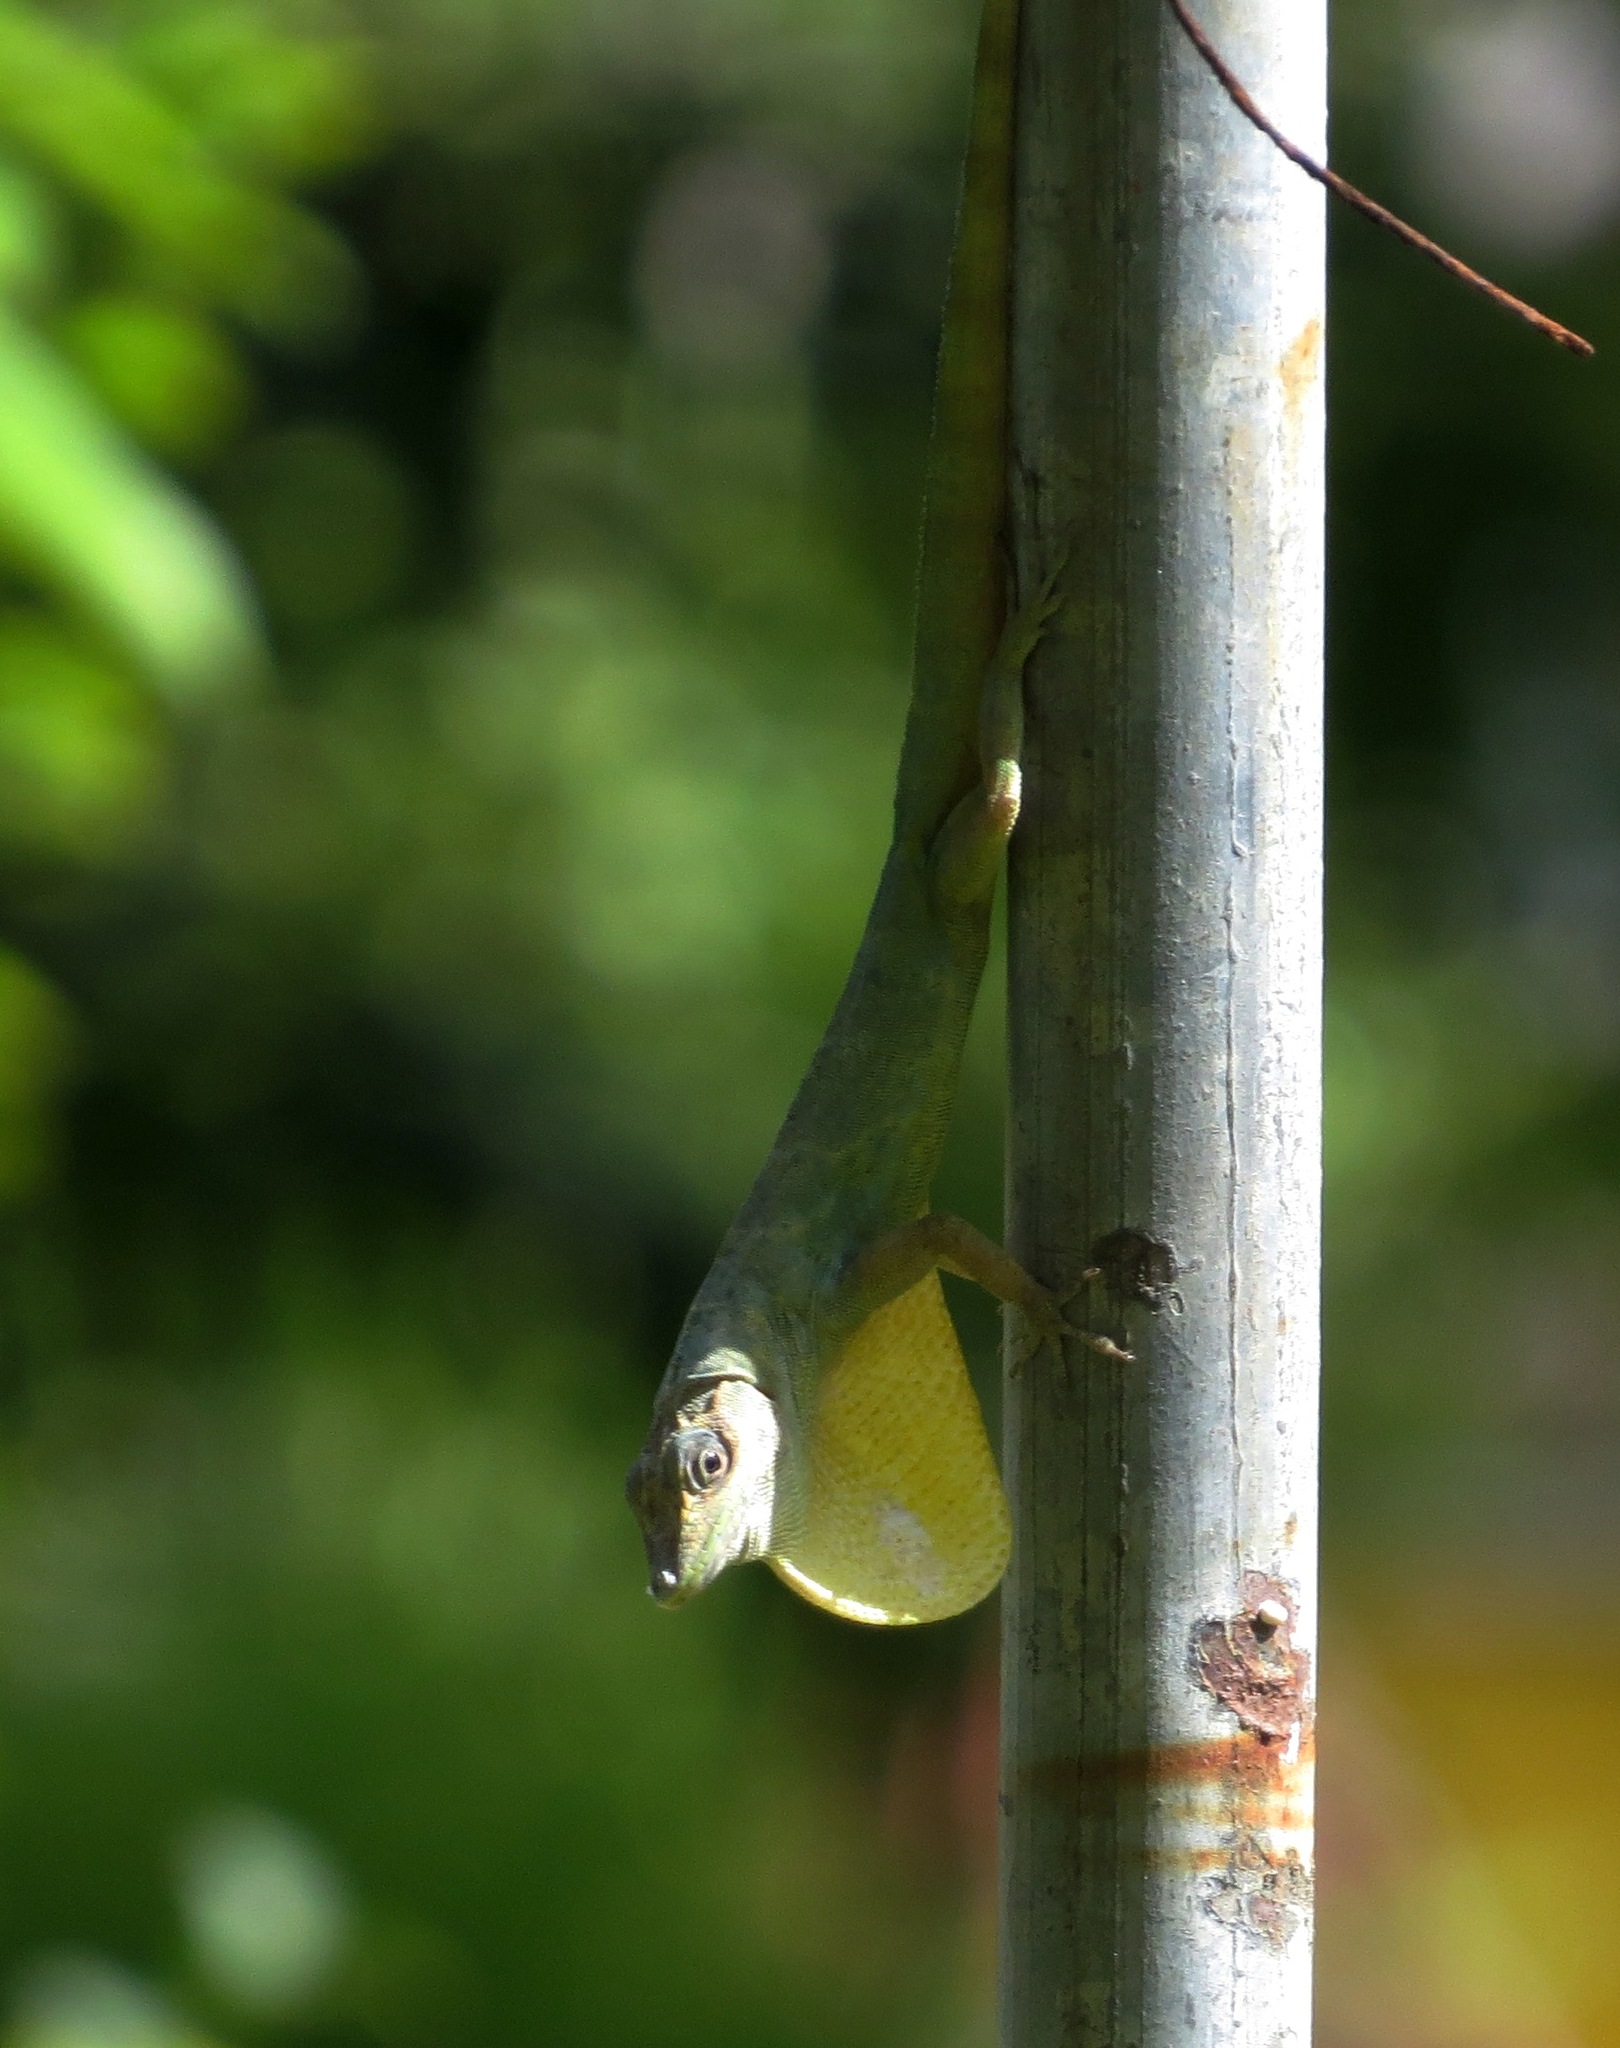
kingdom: Animalia
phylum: Chordata
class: Squamata
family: Dactyloidae
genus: Anolis
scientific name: Anolis aeneus
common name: Bronze anole
